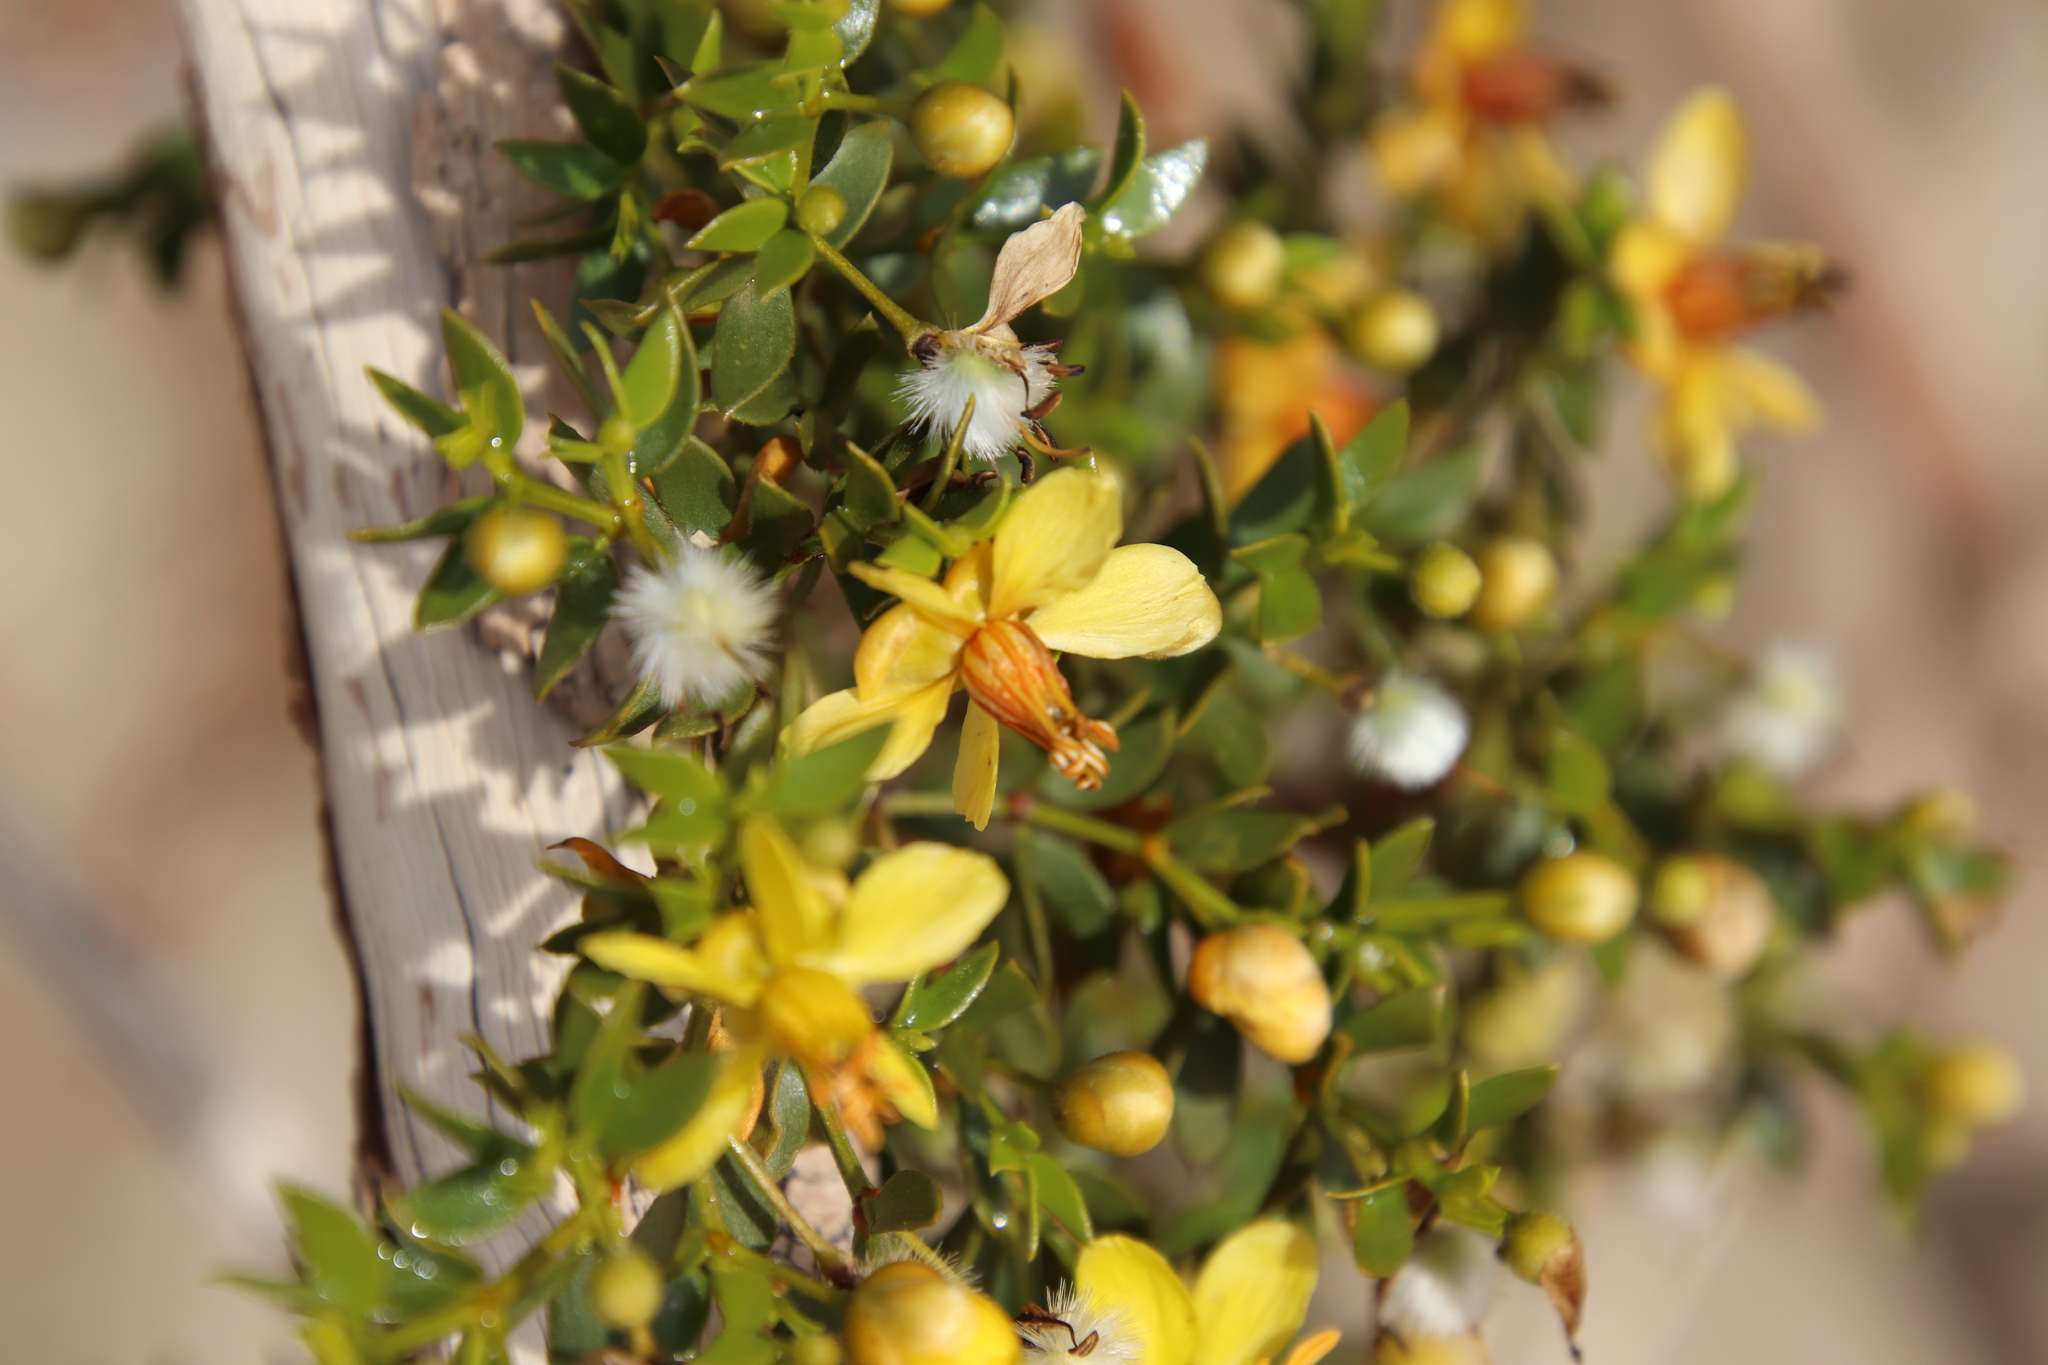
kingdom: Plantae
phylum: Tracheophyta
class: Magnoliopsida
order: Zygophyllales
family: Zygophyllaceae
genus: Larrea
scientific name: Larrea tridentata
